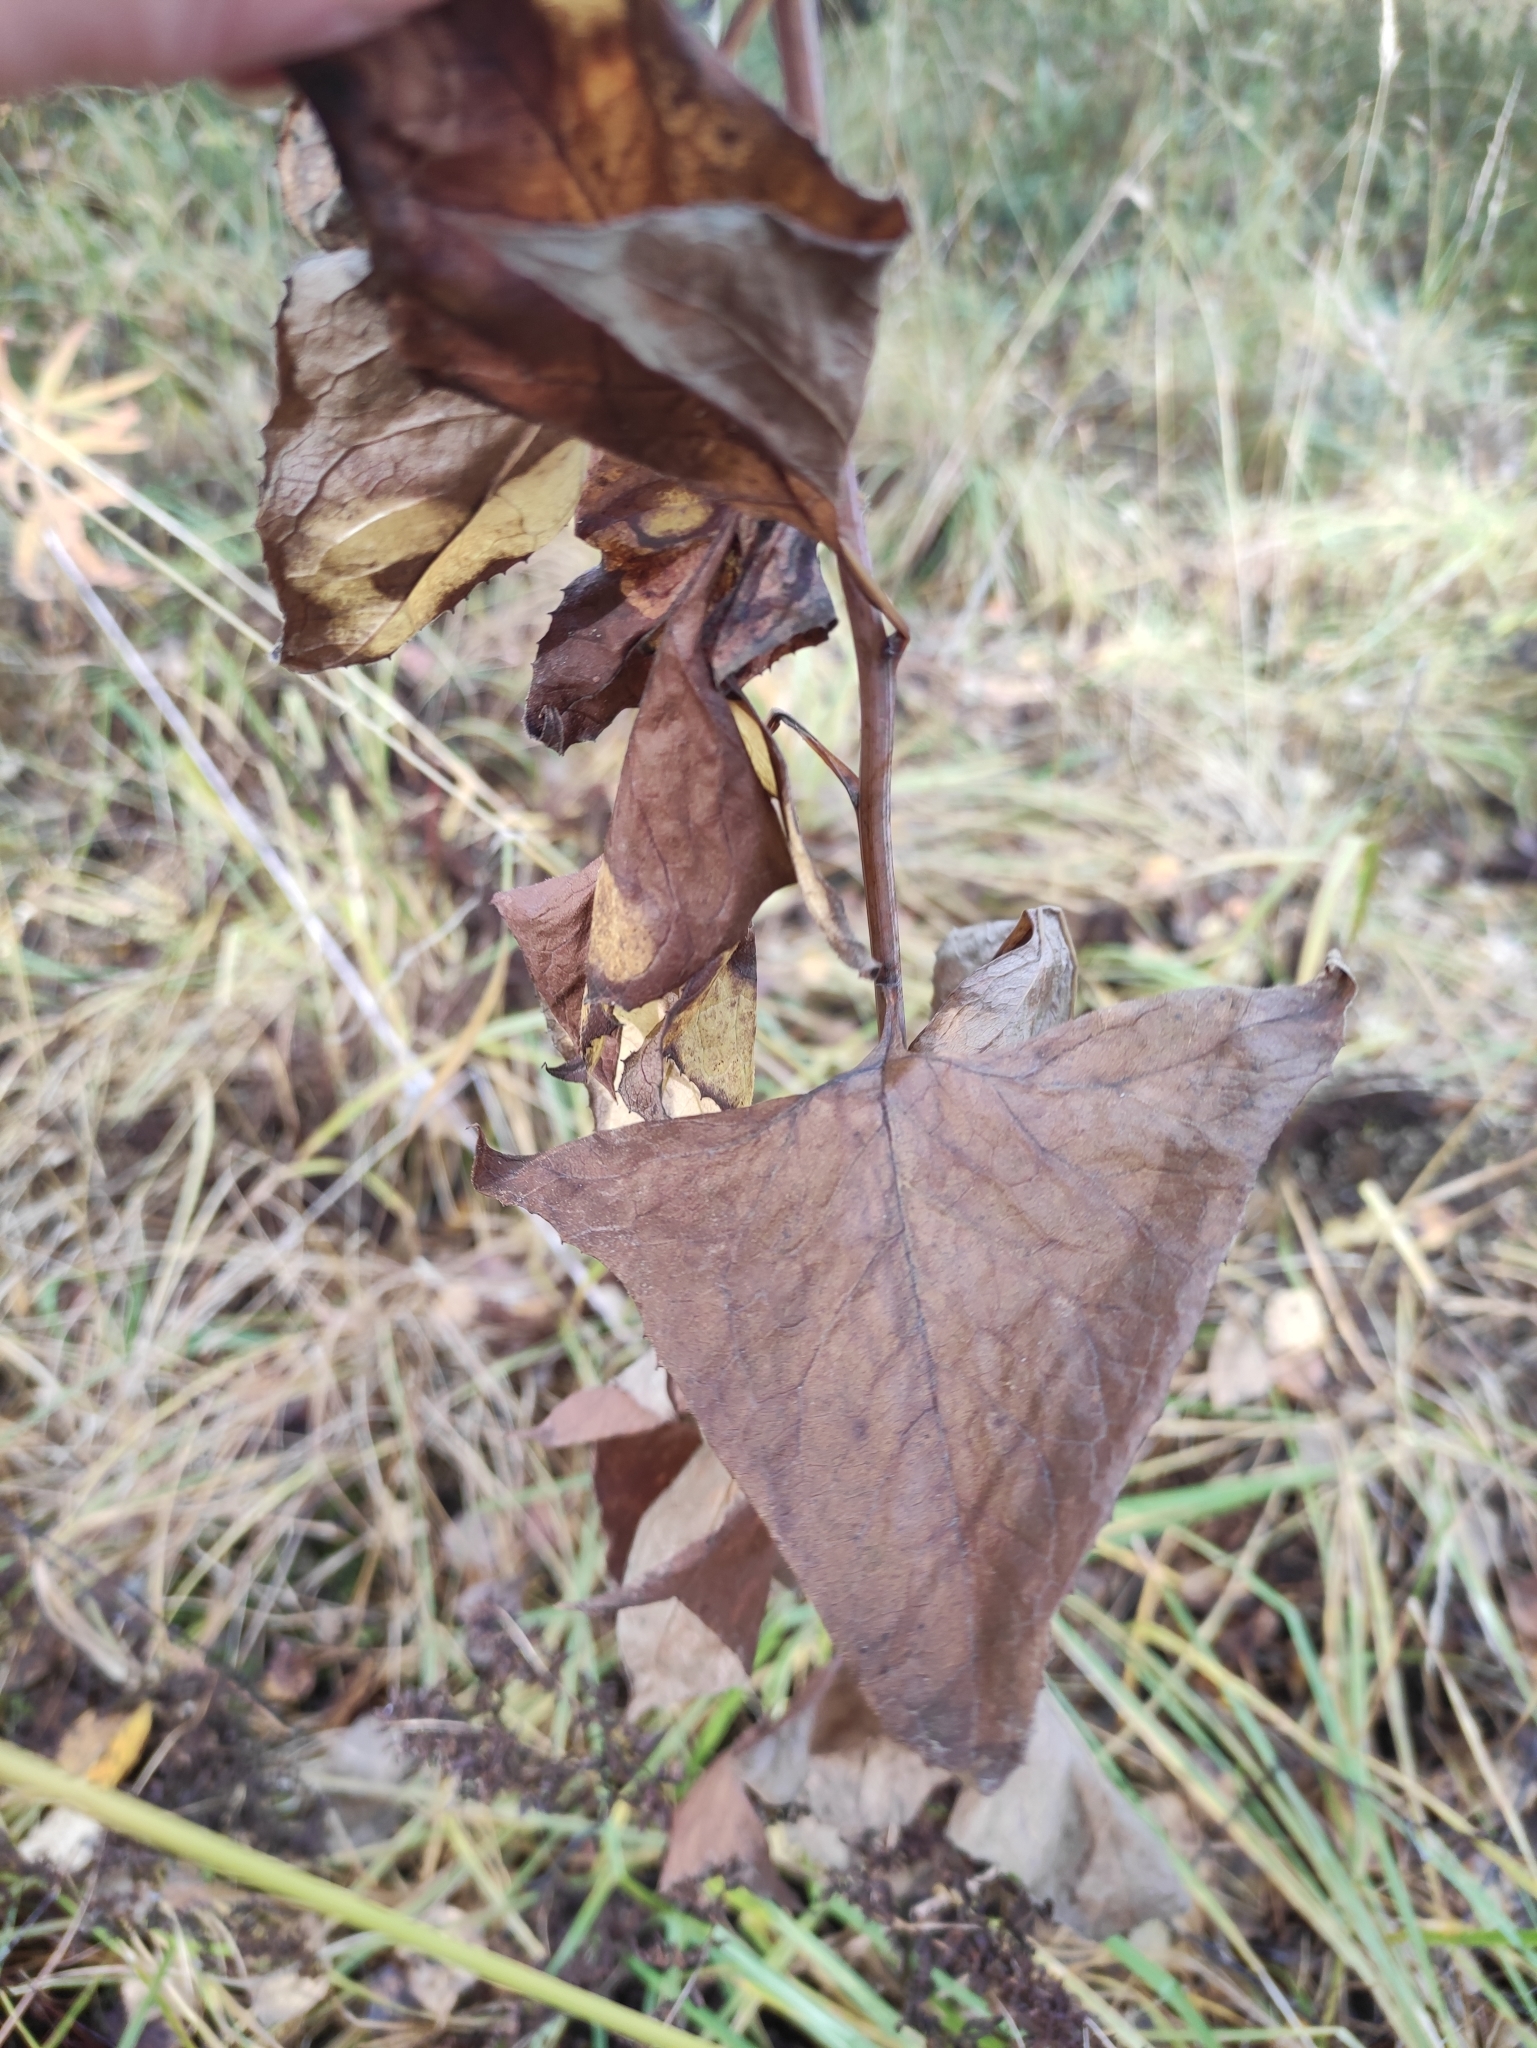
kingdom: Plantae
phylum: Tracheophyta
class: Magnoliopsida
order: Asterales
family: Asteraceae
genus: Parasenecio
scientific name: Parasenecio hastatus
